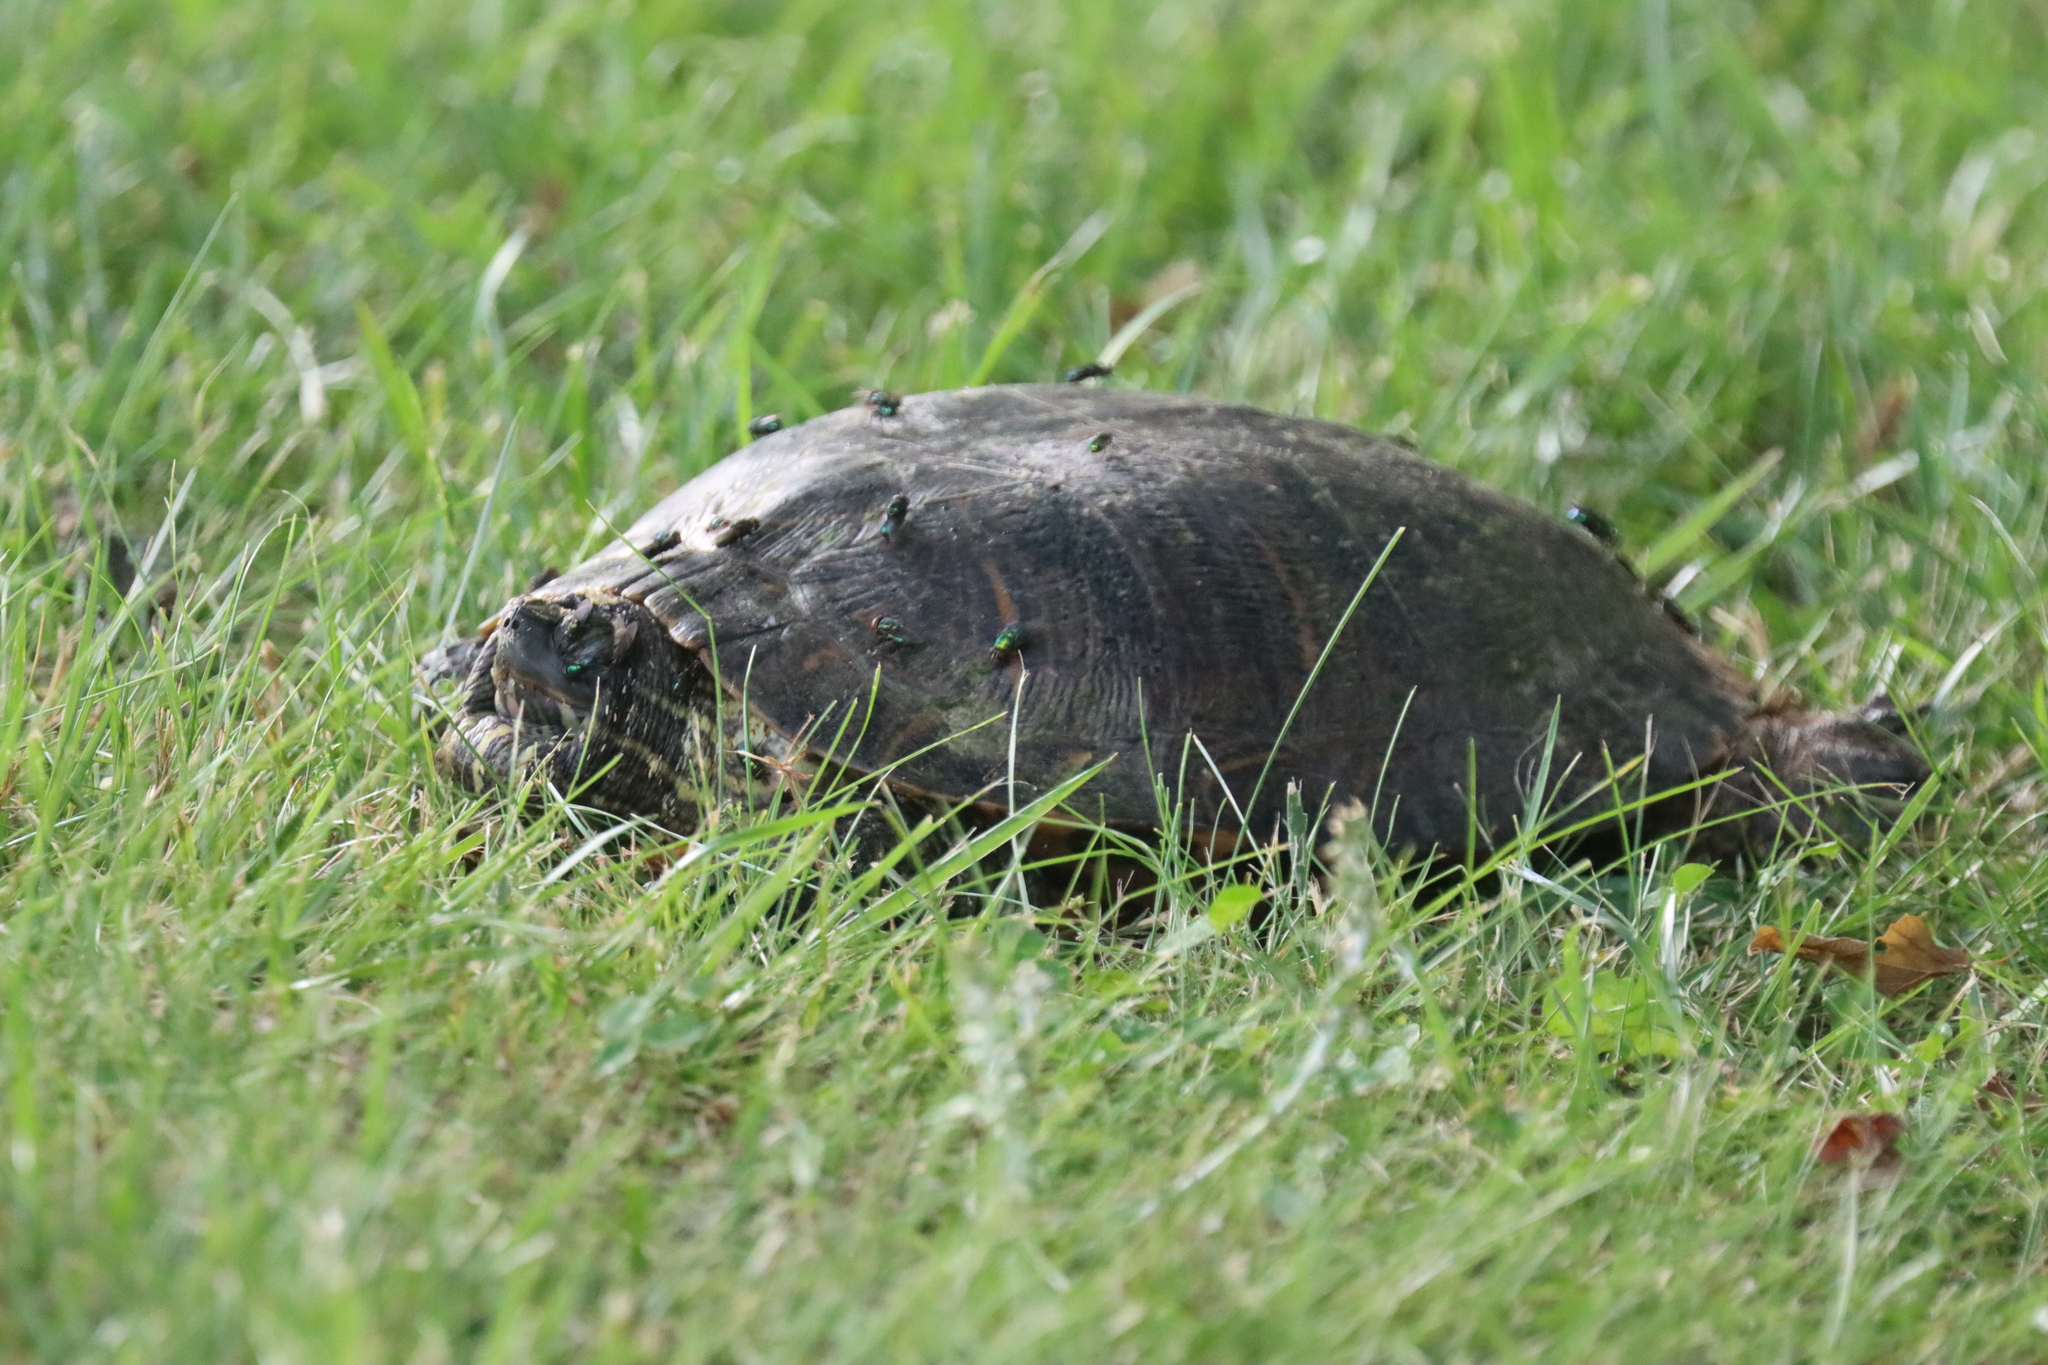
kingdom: Animalia
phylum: Chordata
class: Testudines
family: Emydidae
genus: Trachemys
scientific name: Trachemys scripta
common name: Slider
